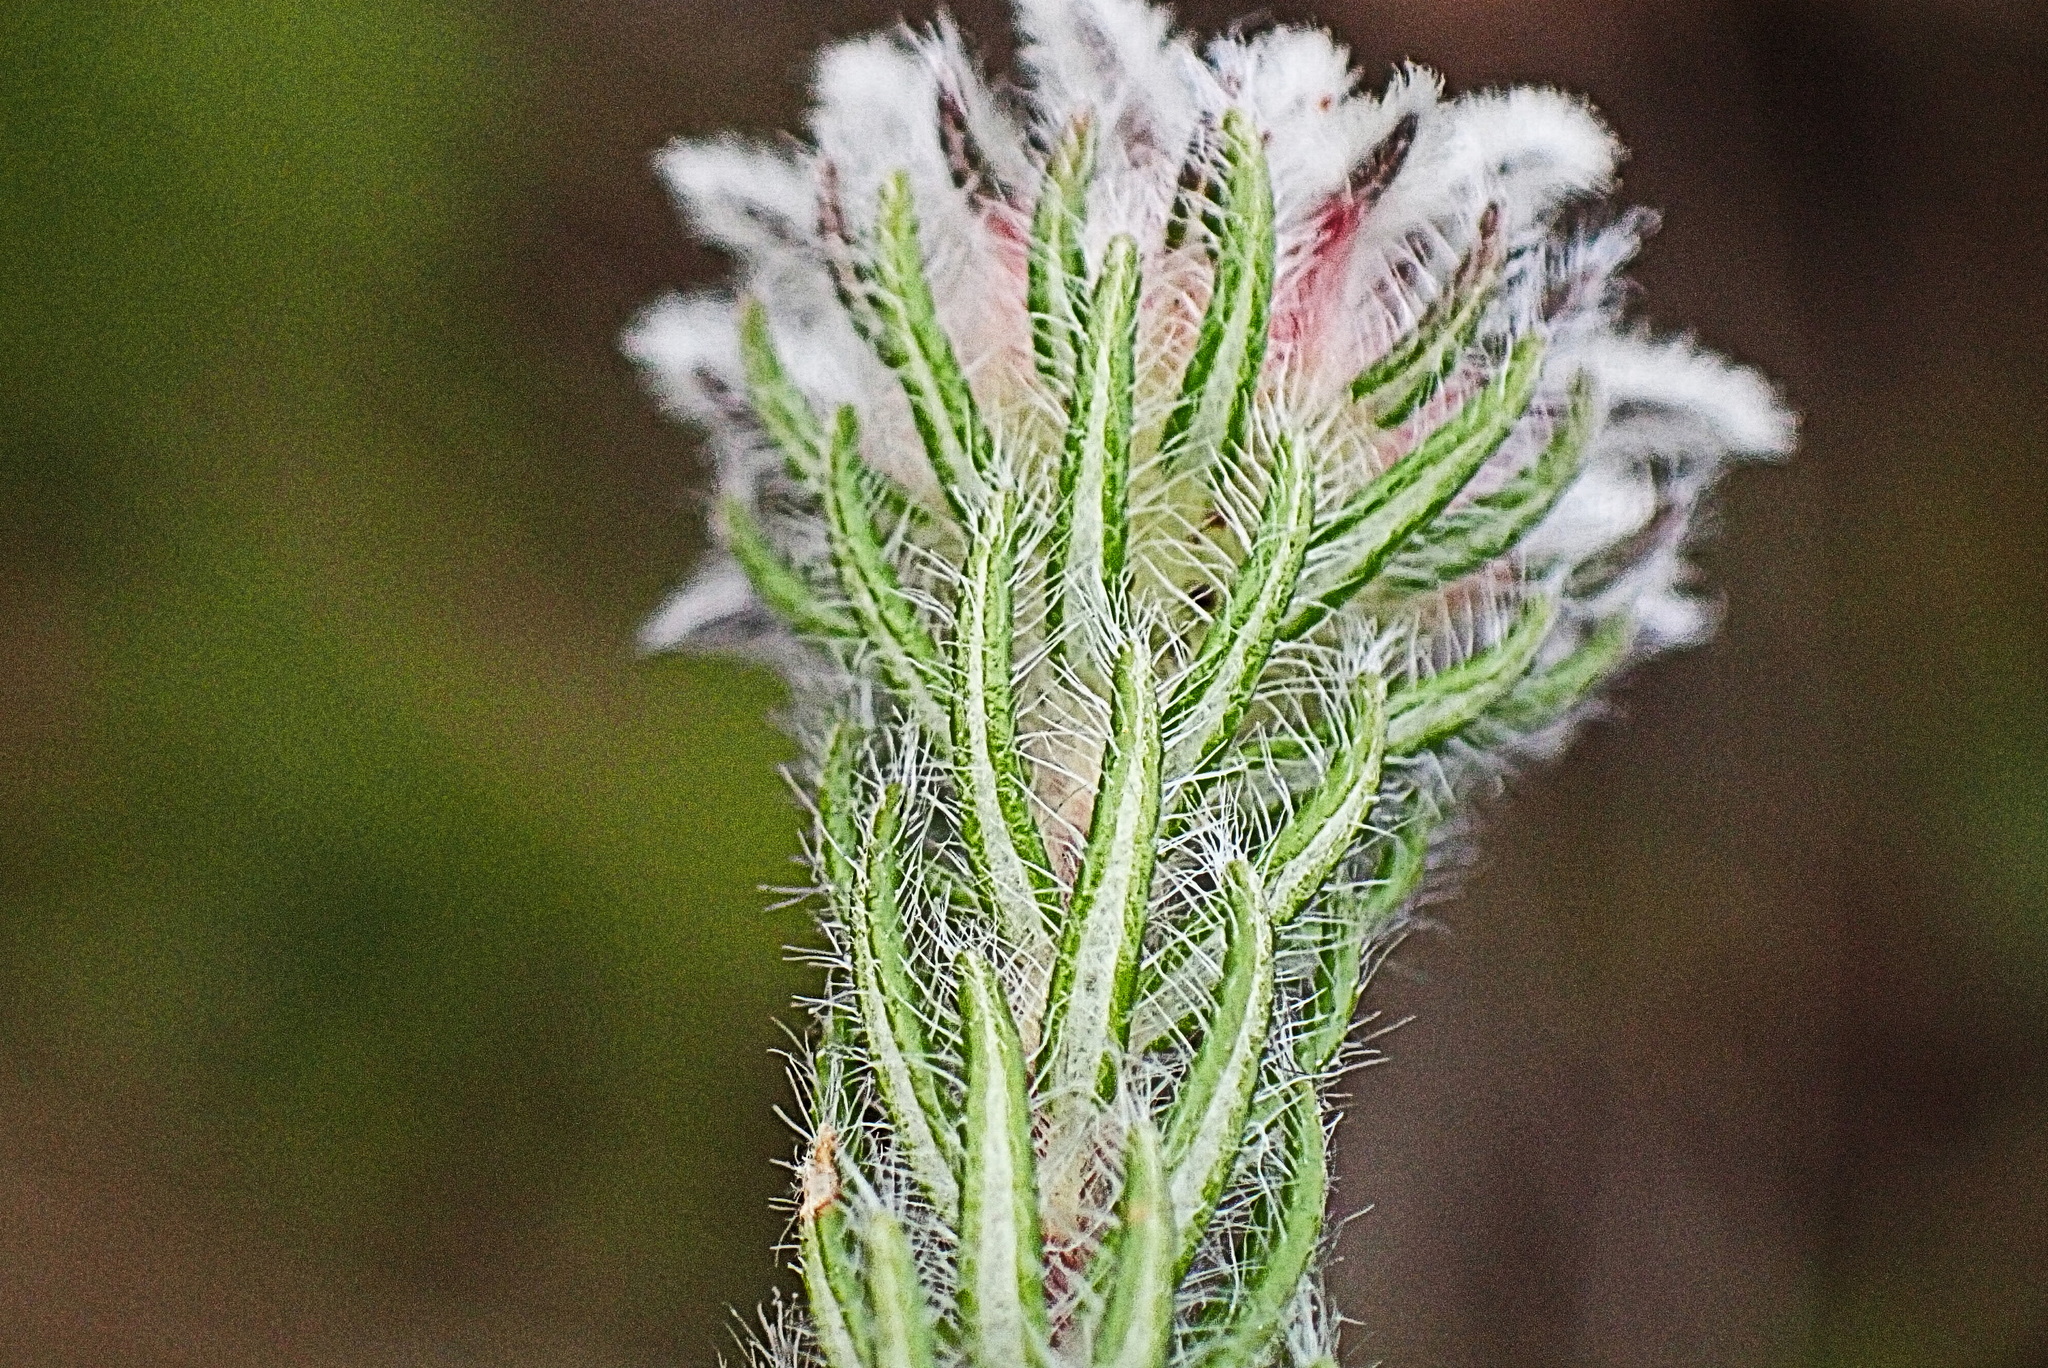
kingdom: Plantae
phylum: Tracheophyta
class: Magnoliopsida
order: Rosales
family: Rhamnaceae
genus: Phylica
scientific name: Phylica curvifolia
